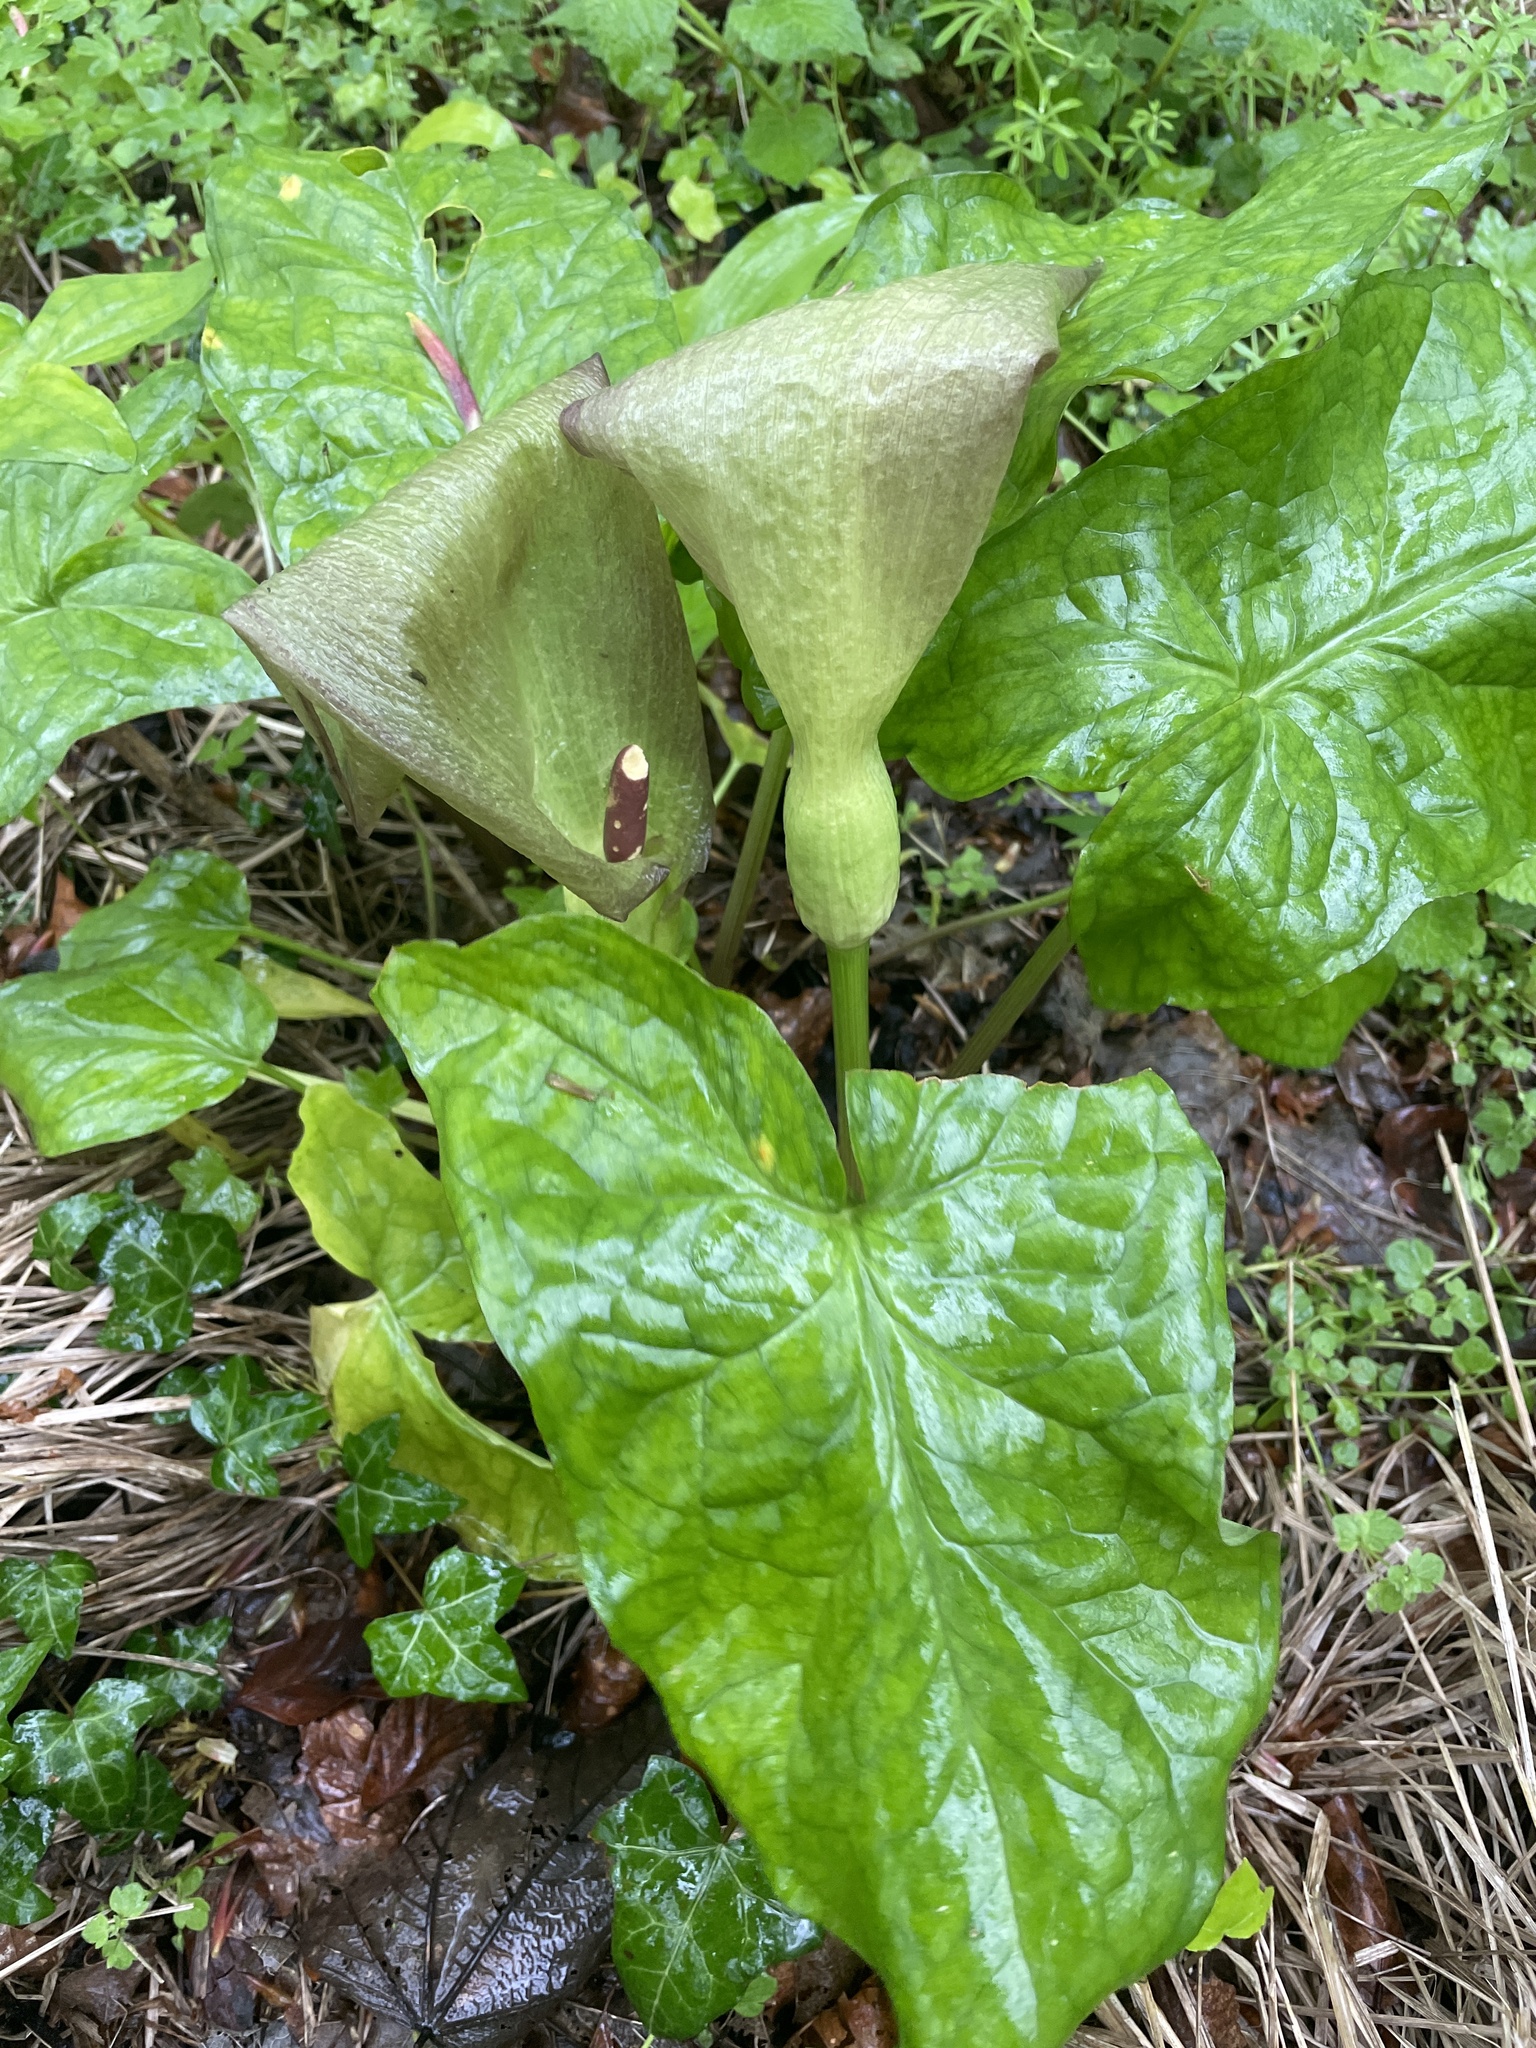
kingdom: Plantae
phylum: Tracheophyta
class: Liliopsida
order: Alismatales
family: Araceae
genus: Arum
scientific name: Arum maculatum
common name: Lords-and-ladies
